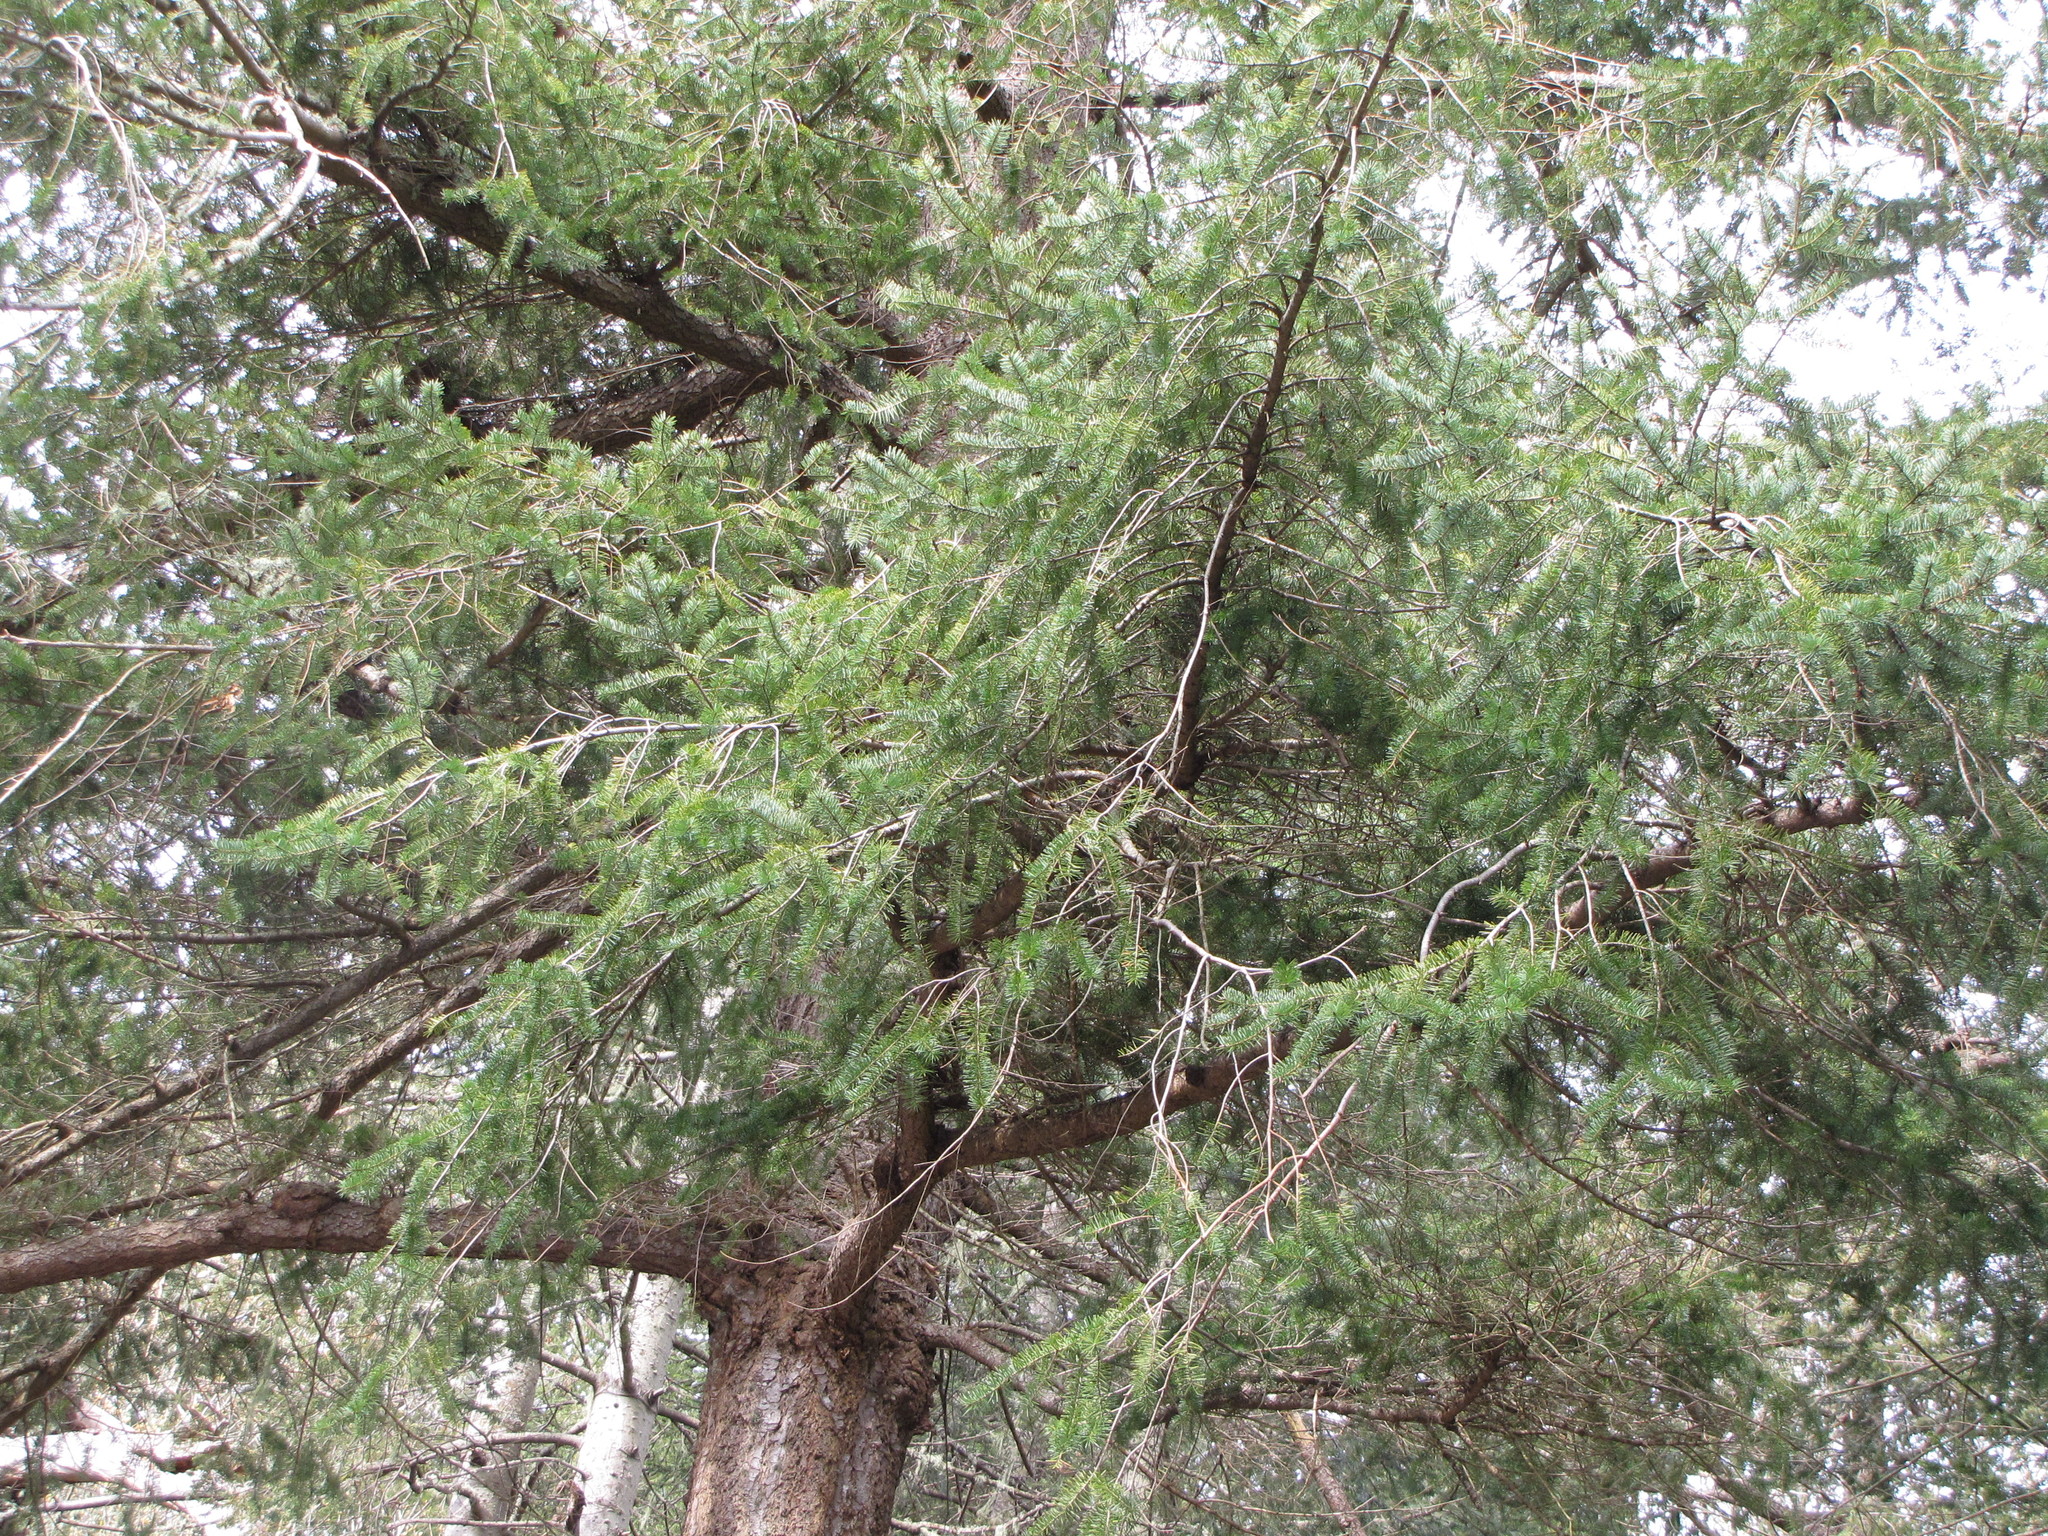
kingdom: Plantae
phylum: Tracheophyta
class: Pinopsida
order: Pinales
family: Pinaceae
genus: Pseudotsuga
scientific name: Pseudotsuga menziesii
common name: Douglas fir
